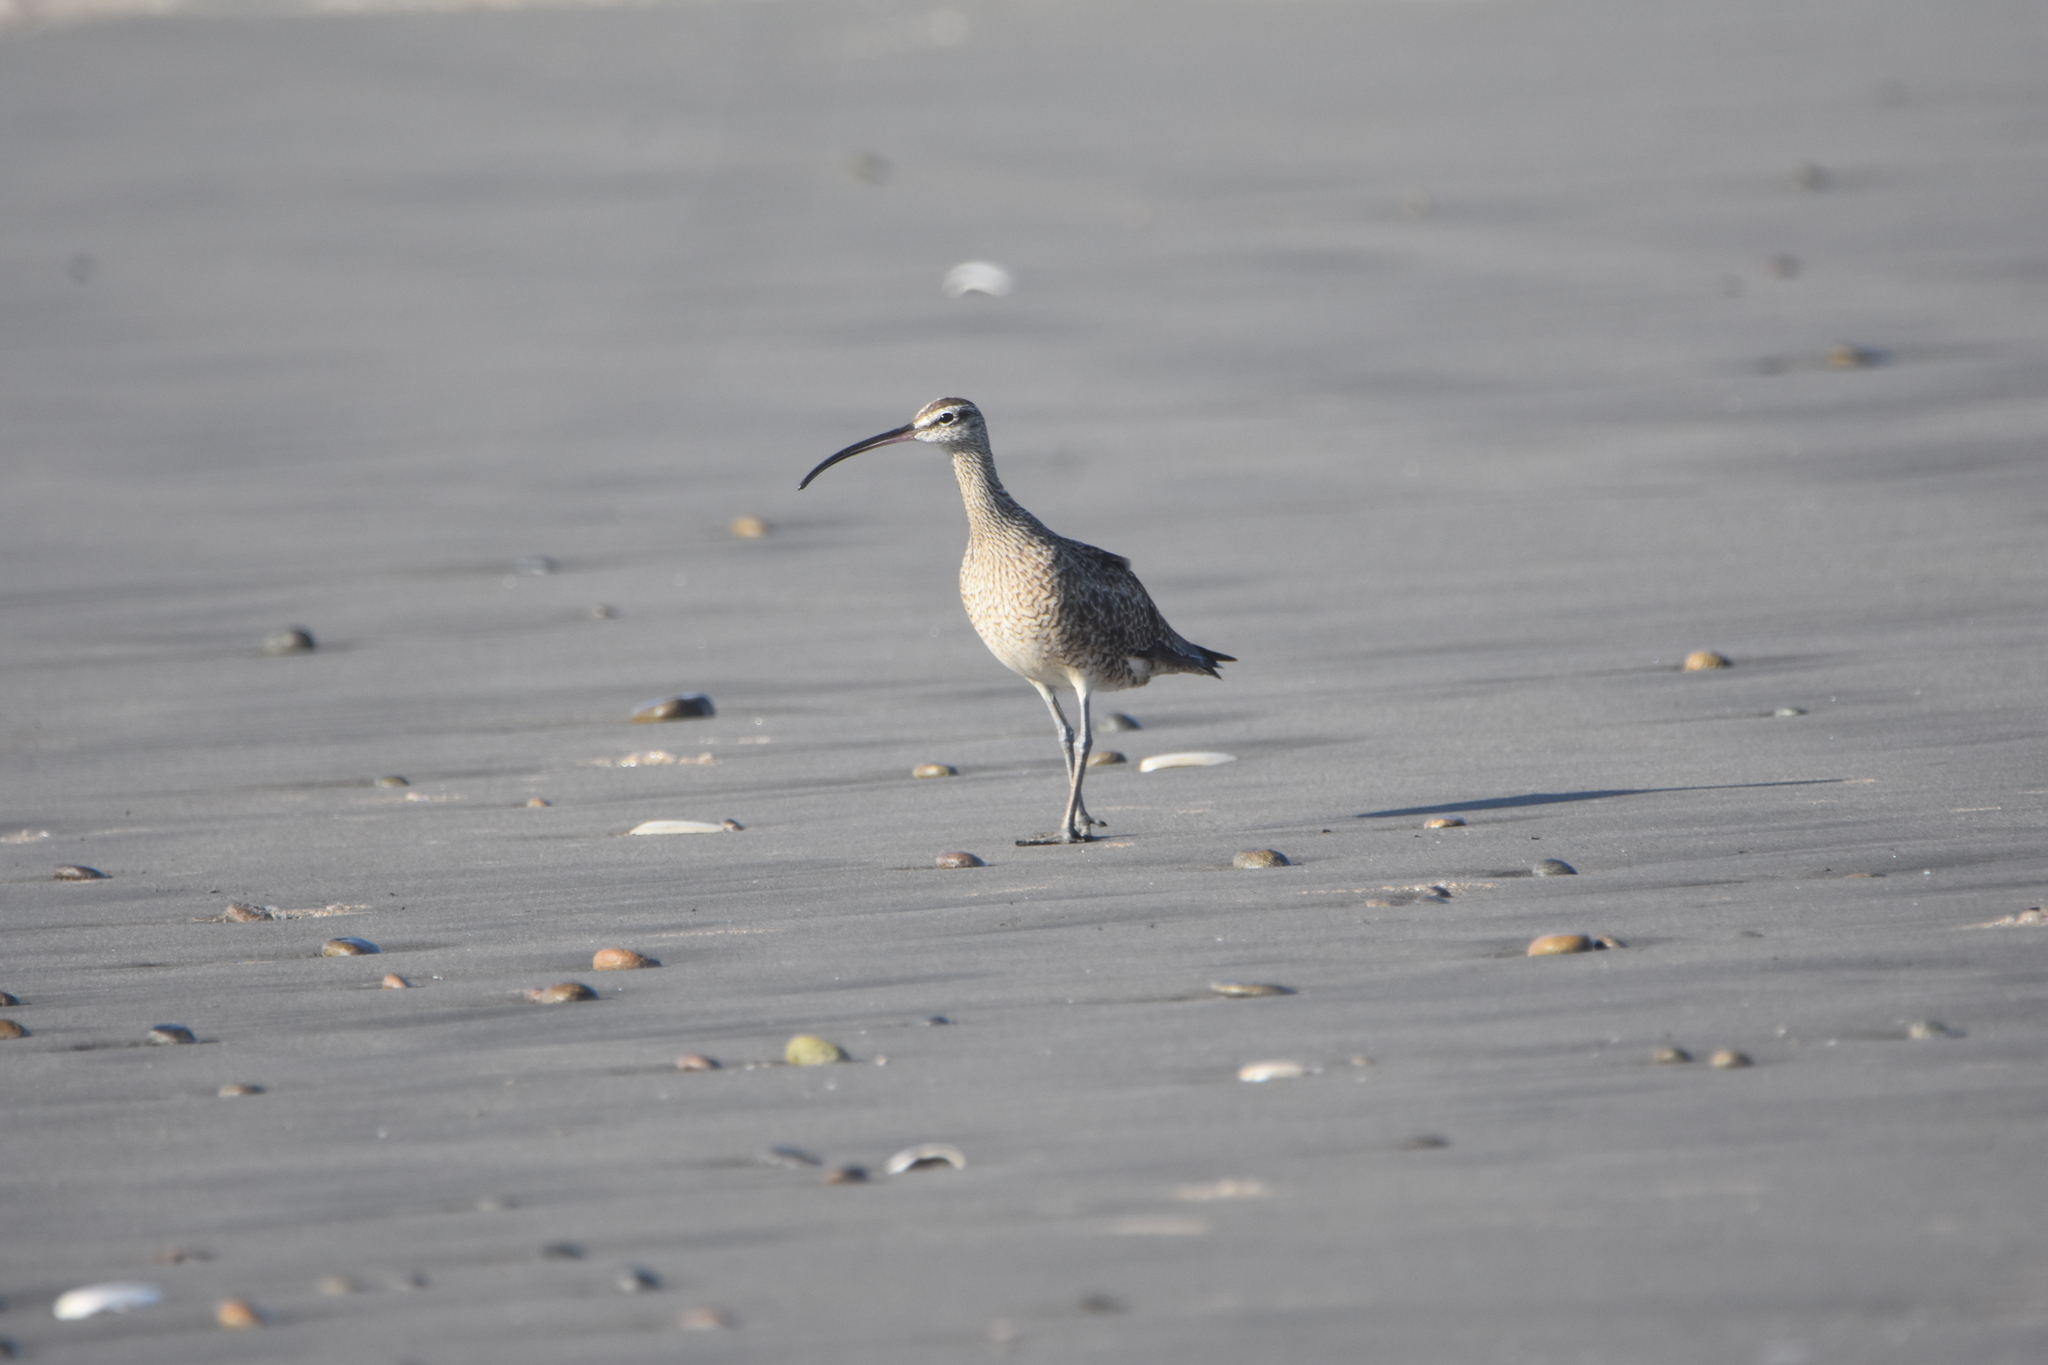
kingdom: Animalia
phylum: Chordata
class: Aves
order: Charadriiformes
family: Scolopacidae
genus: Numenius
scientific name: Numenius phaeopus
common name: Whimbrel
